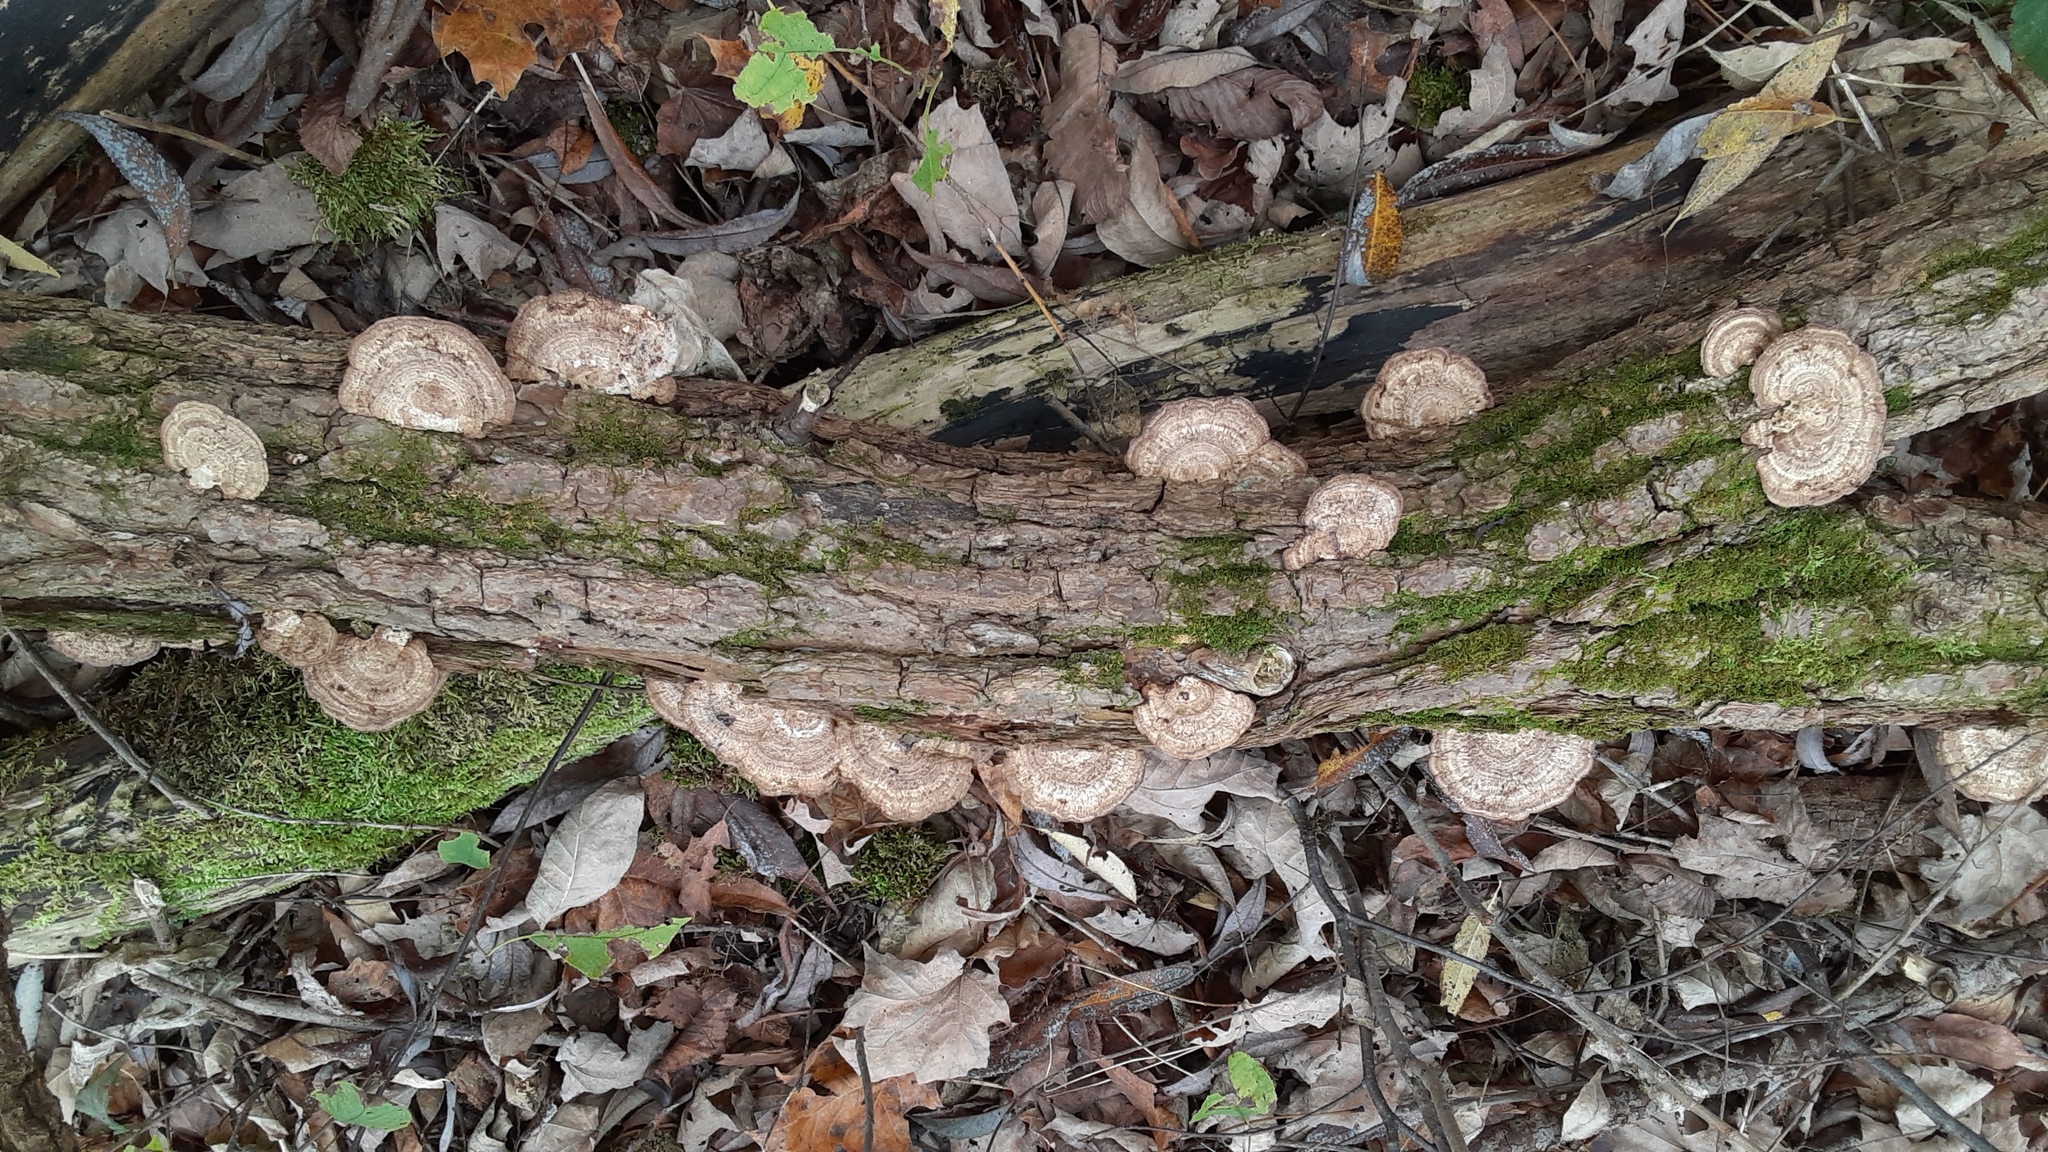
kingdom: Fungi
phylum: Basidiomycota
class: Agaricomycetes
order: Polyporales
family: Polyporaceae
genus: Daedaleopsis
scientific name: Daedaleopsis confragosa
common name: Blushing bracket
